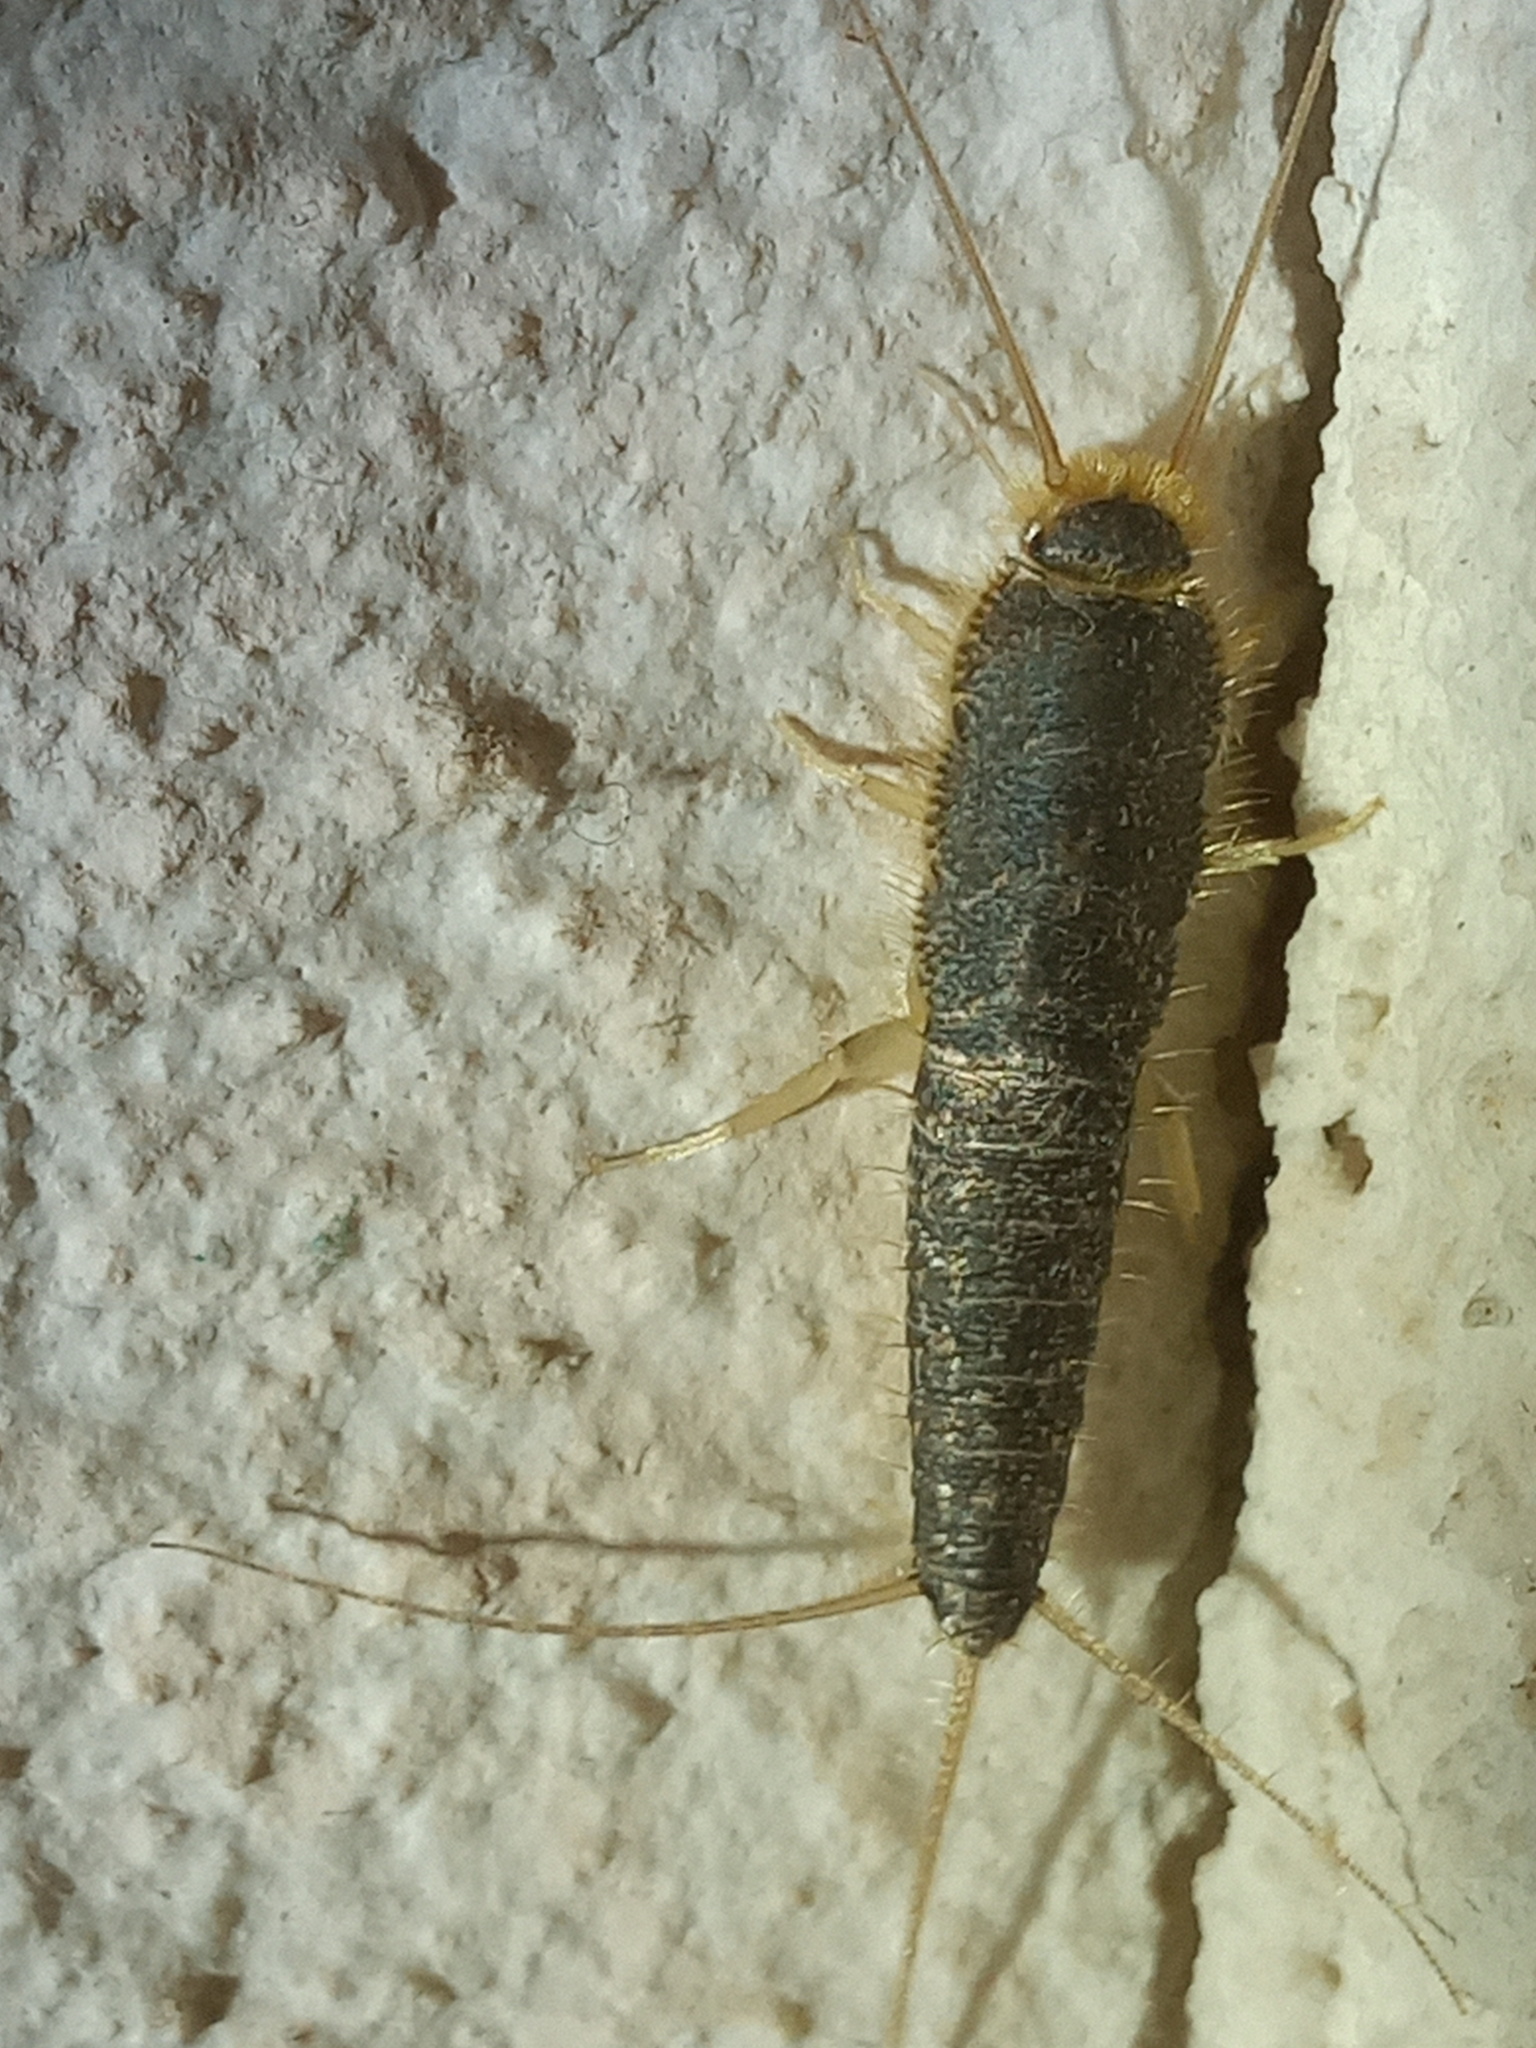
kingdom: Animalia
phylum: Arthropoda
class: Insecta
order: Zygentoma
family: Lepismatidae
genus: Ctenolepisma
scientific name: Ctenolepisma longicaudatum
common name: Silverfish
